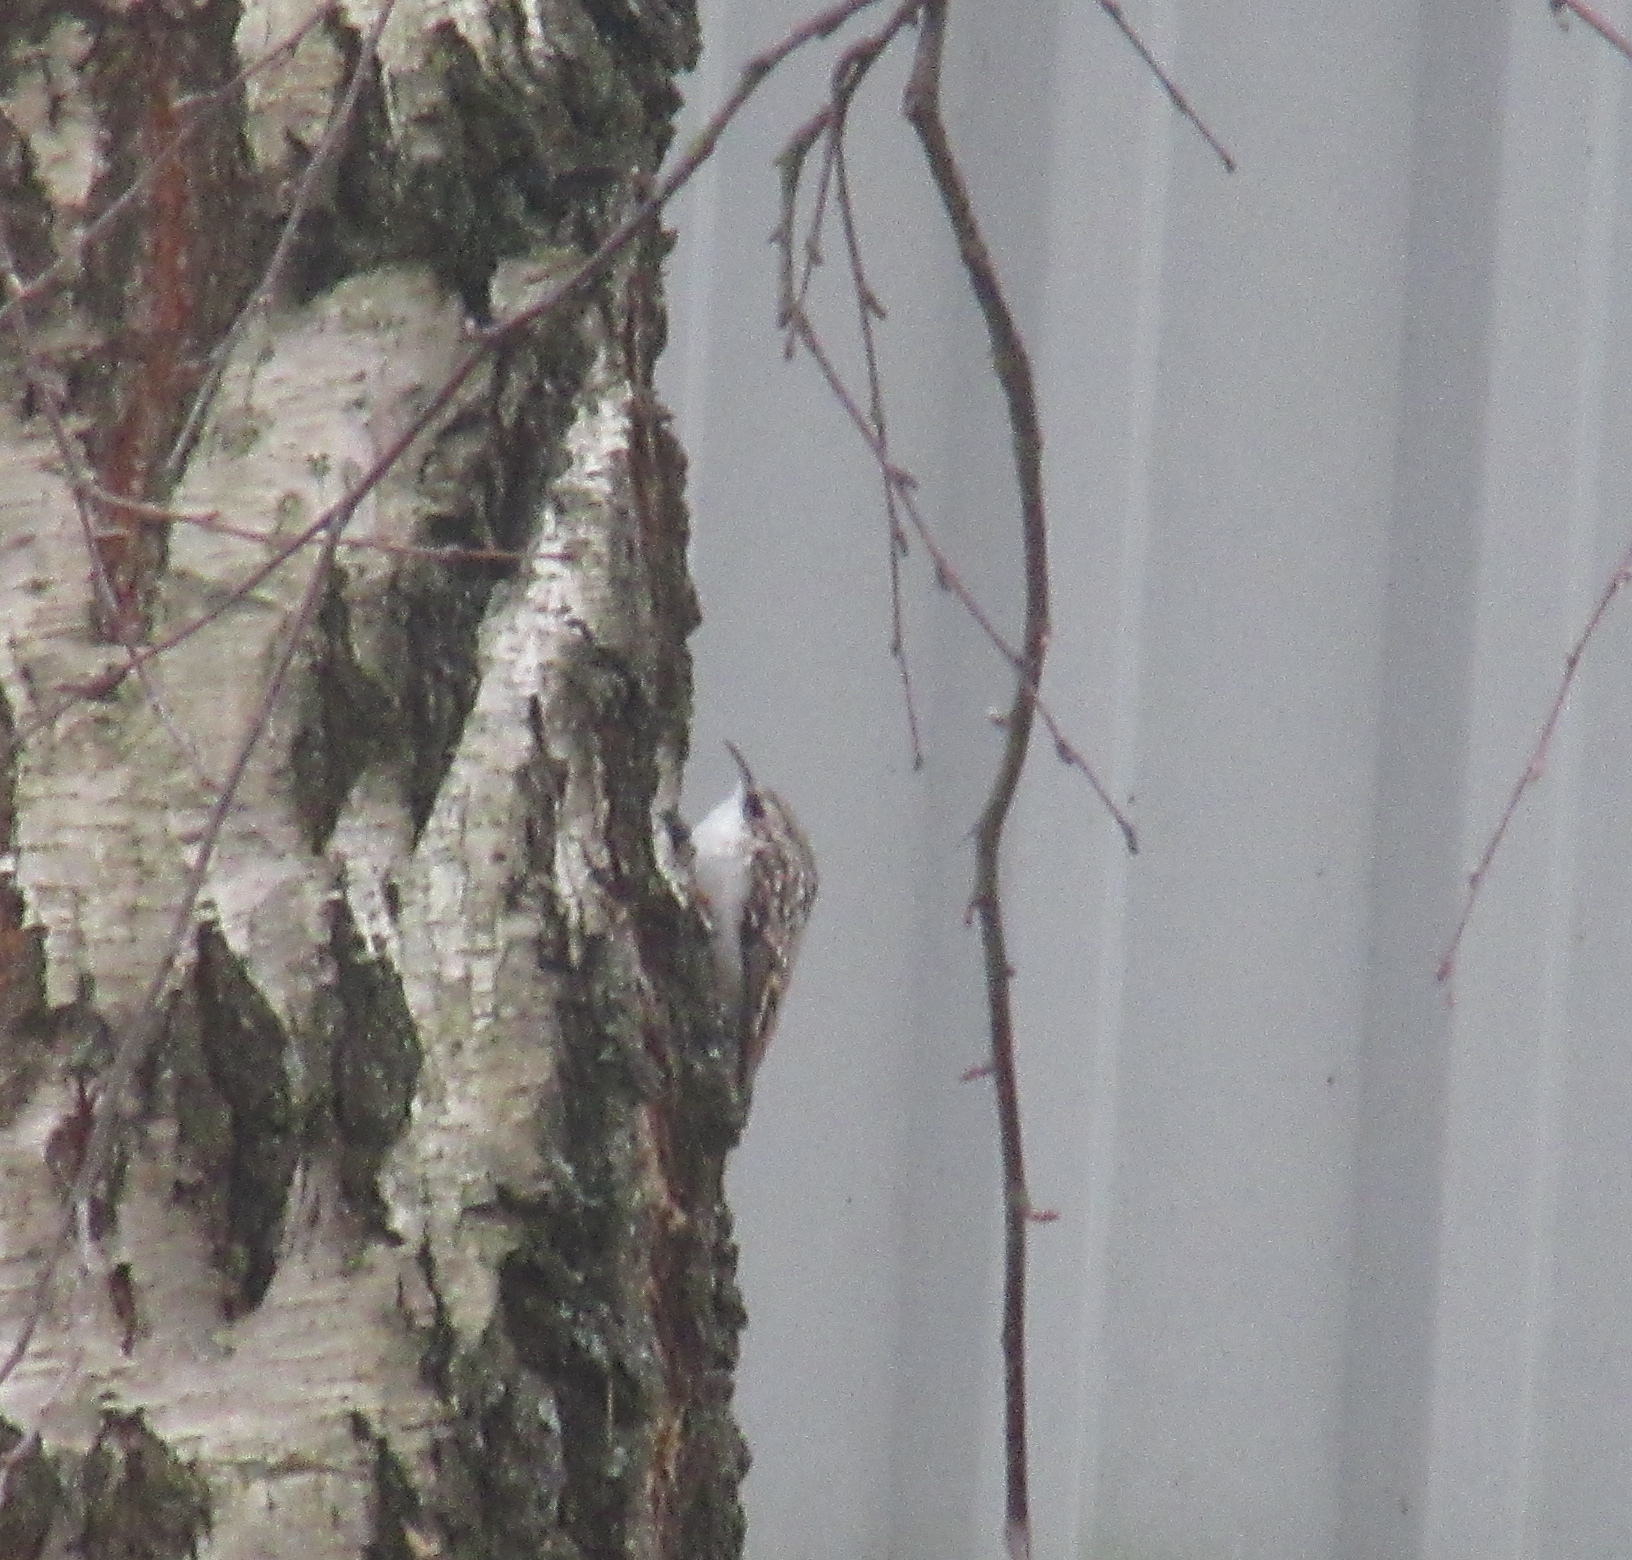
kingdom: Animalia
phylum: Chordata
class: Aves
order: Passeriformes
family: Certhiidae
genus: Certhia
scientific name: Certhia familiaris
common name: Eurasian treecreeper
